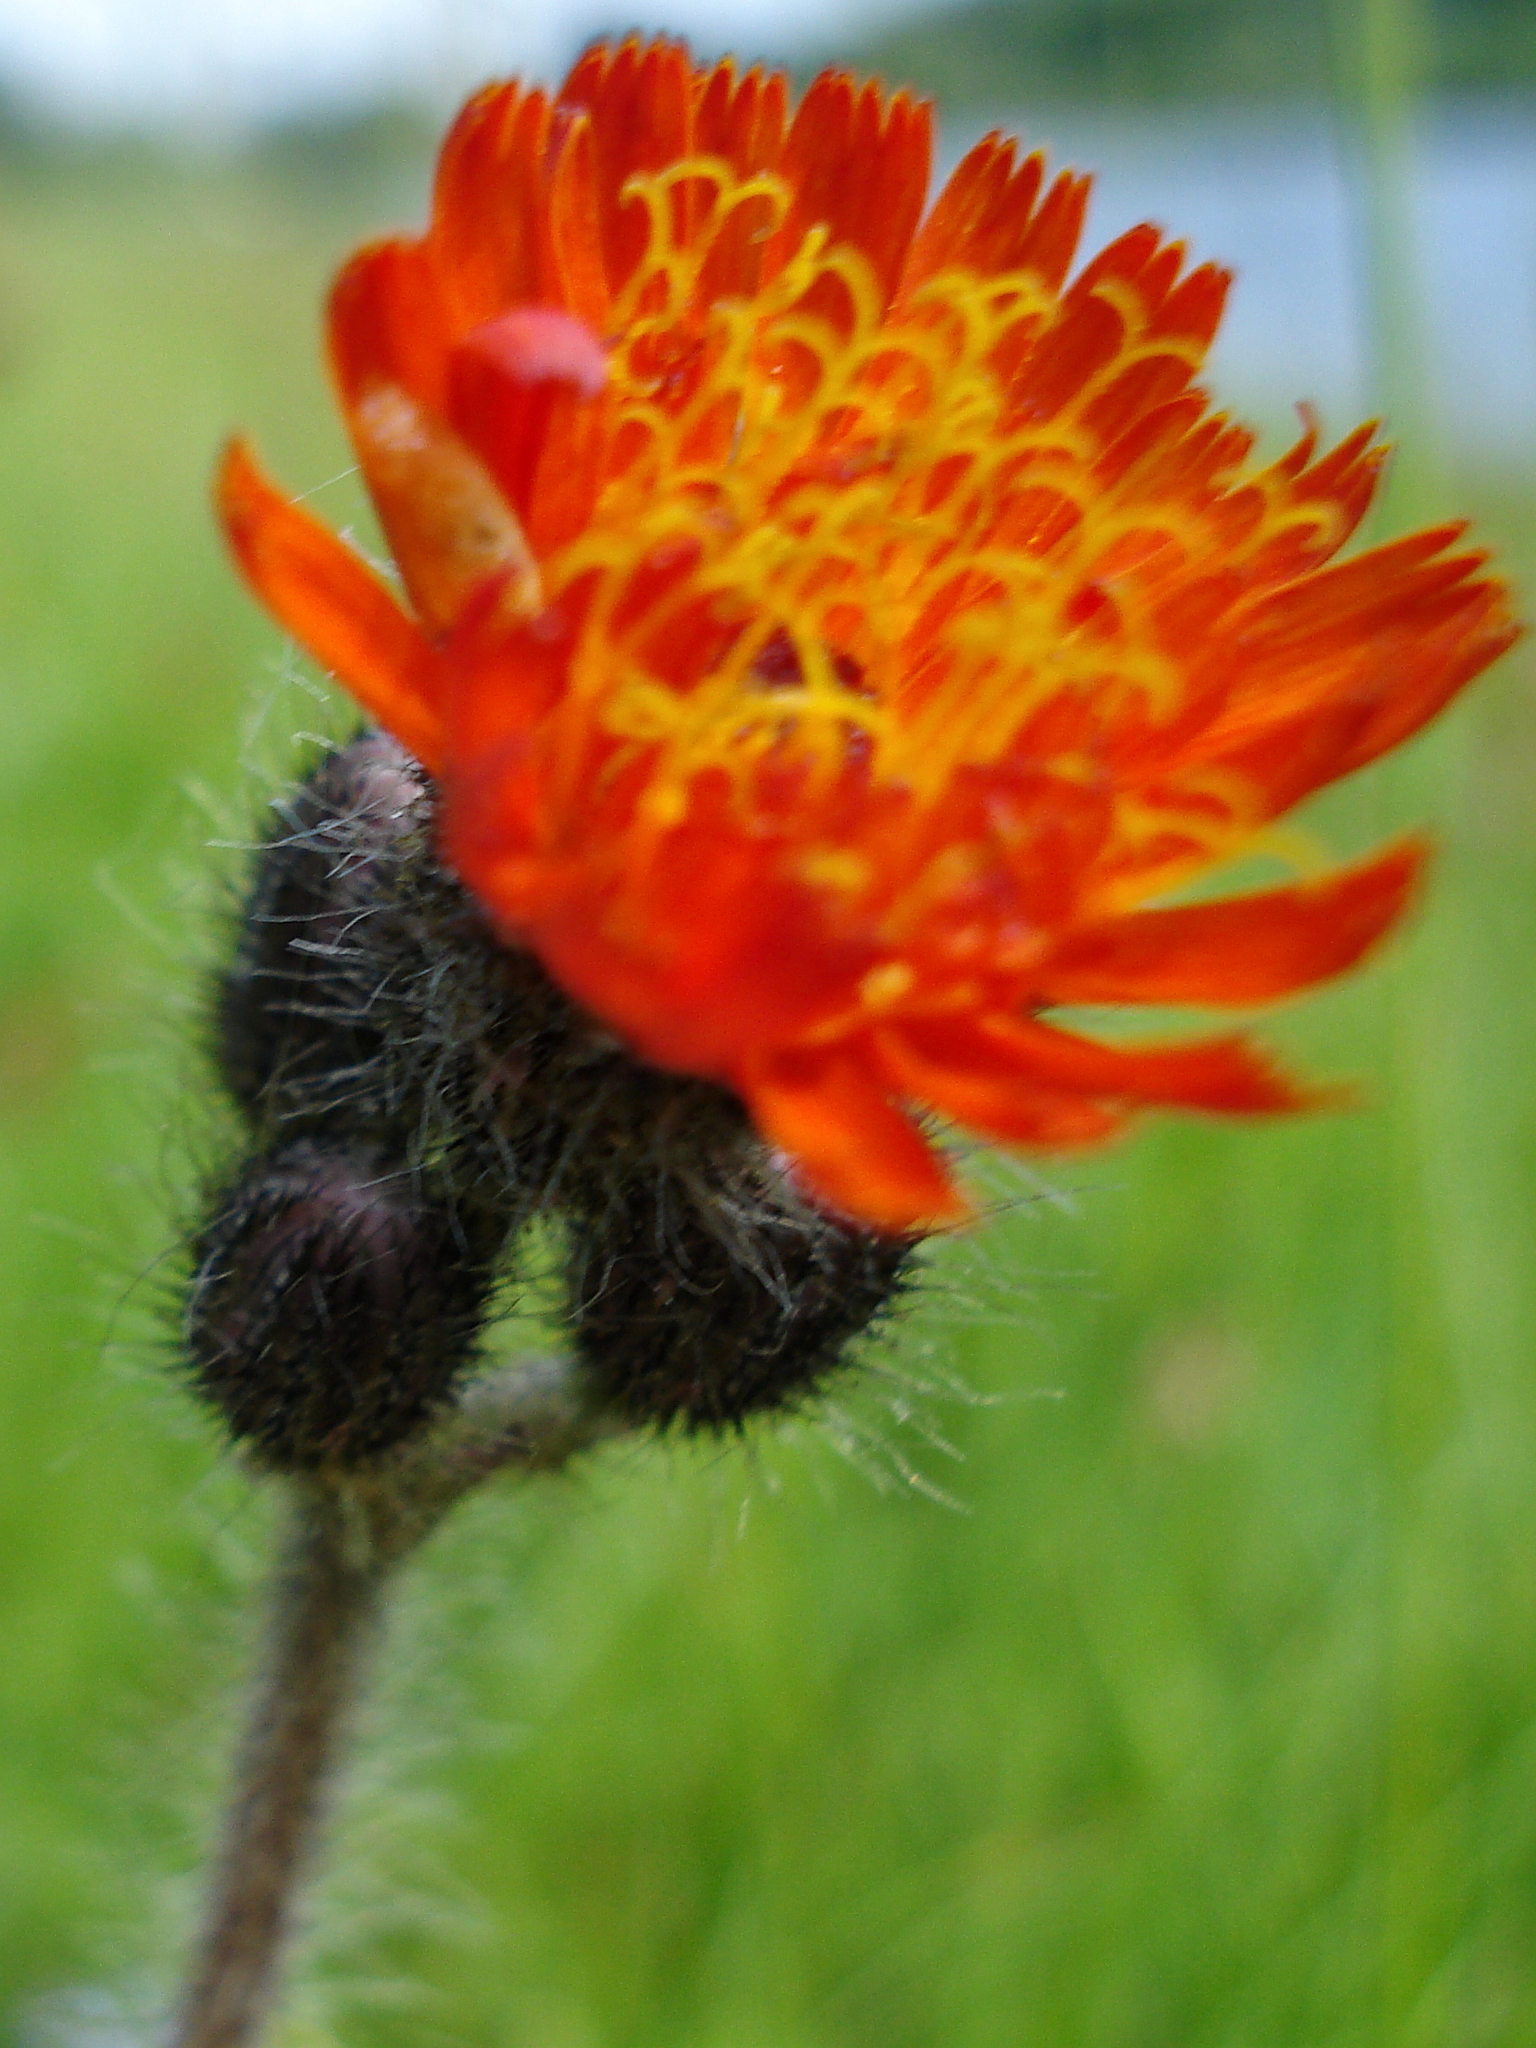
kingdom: Plantae
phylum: Tracheophyta
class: Magnoliopsida
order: Asterales
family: Asteraceae
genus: Pilosella
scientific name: Pilosella aurantiaca
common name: Fox-and-cubs
